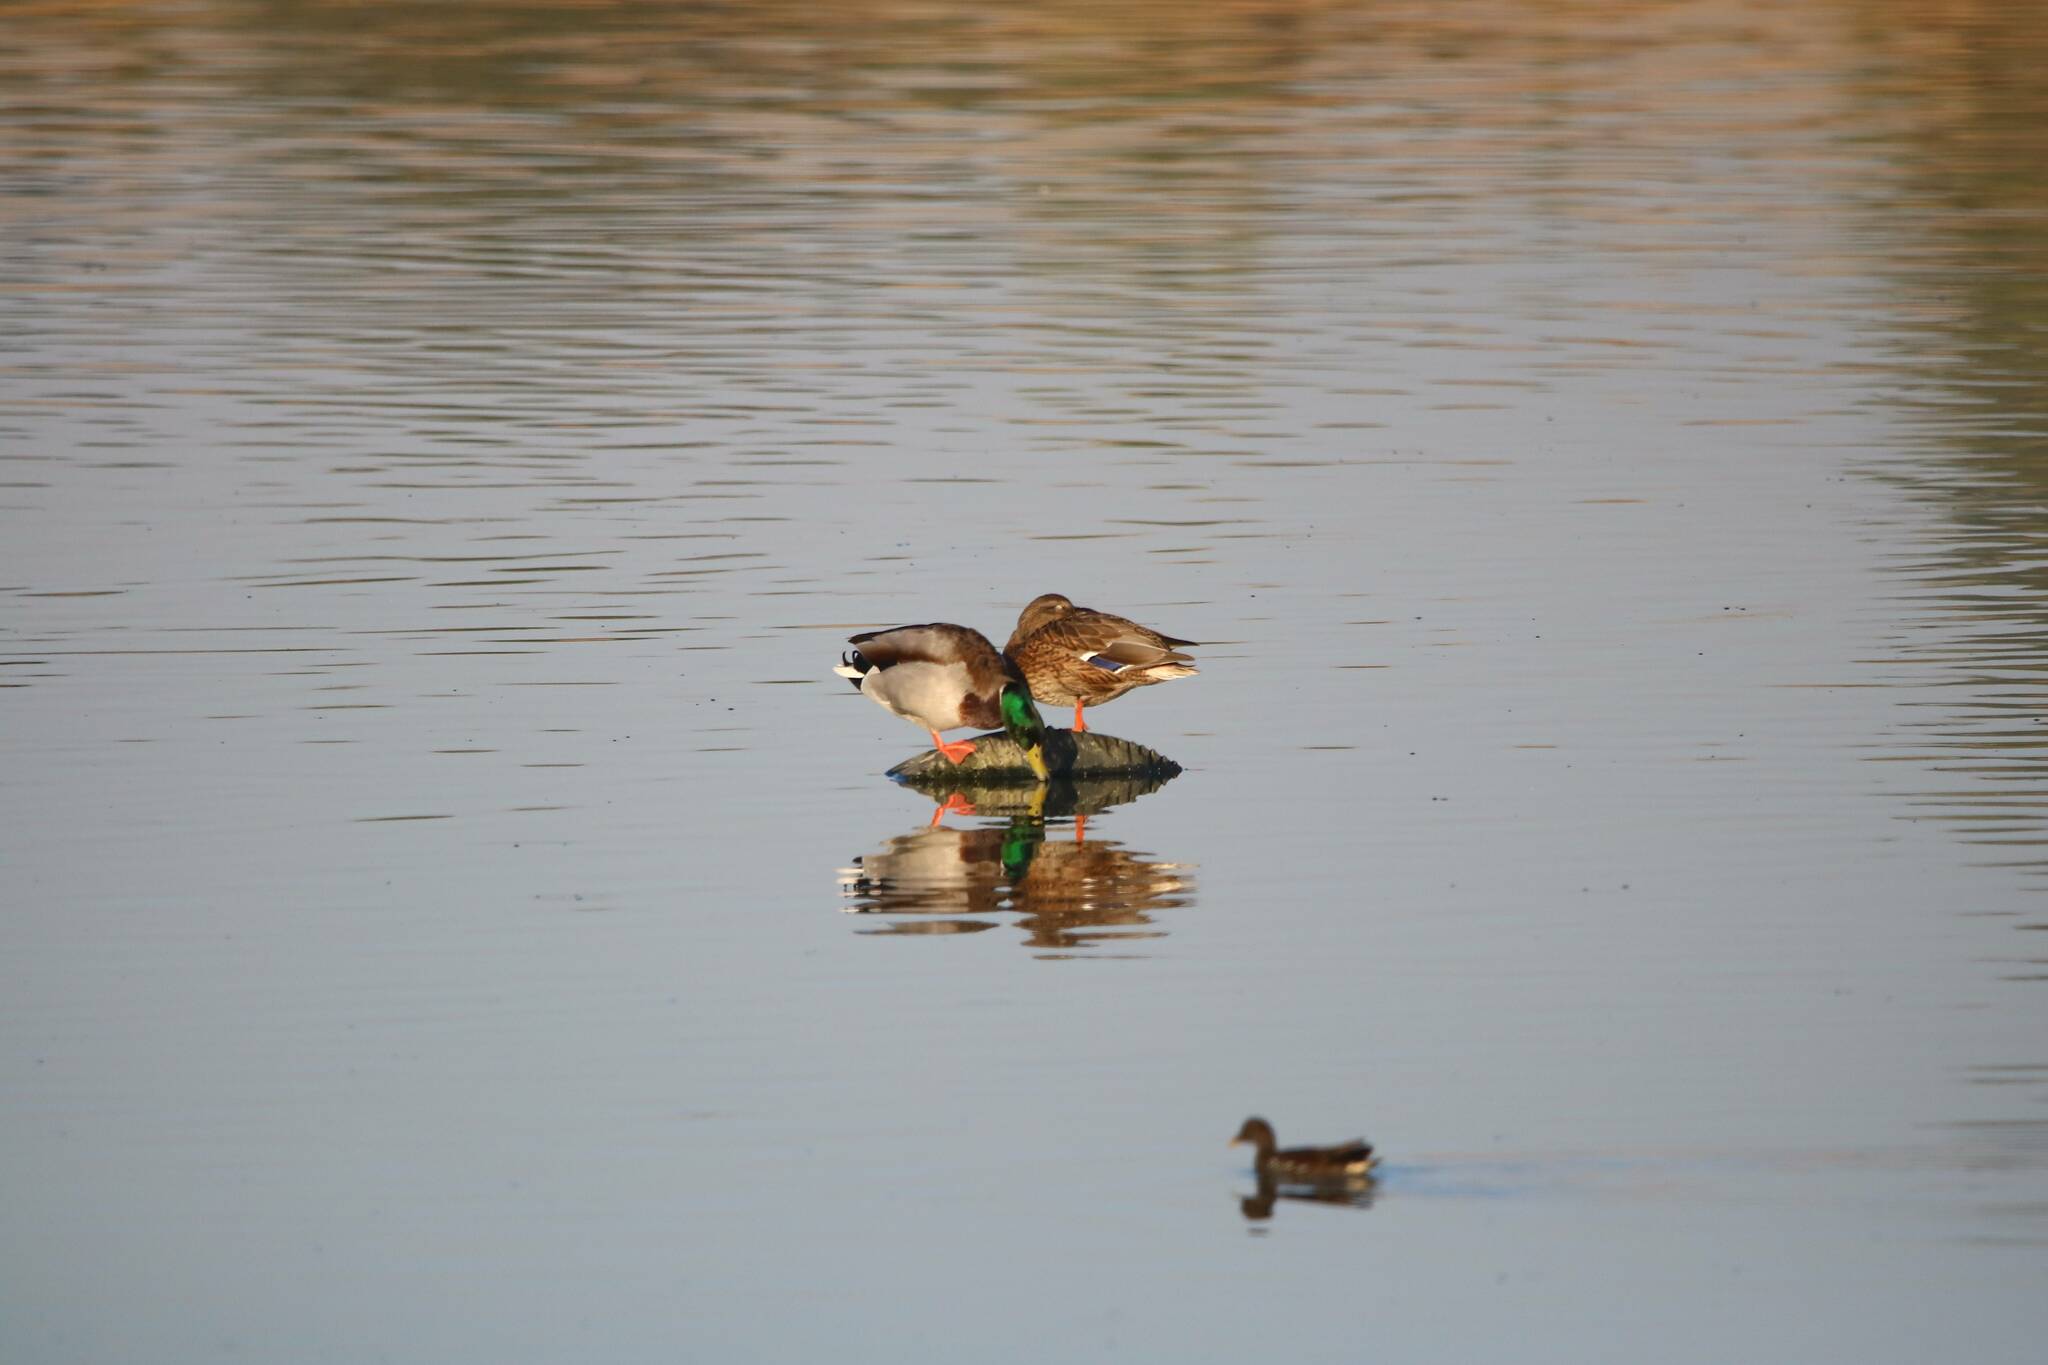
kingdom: Animalia
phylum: Chordata
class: Aves
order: Anseriformes
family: Anatidae
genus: Anas
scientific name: Anas platyrhynchos
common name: Mallard
